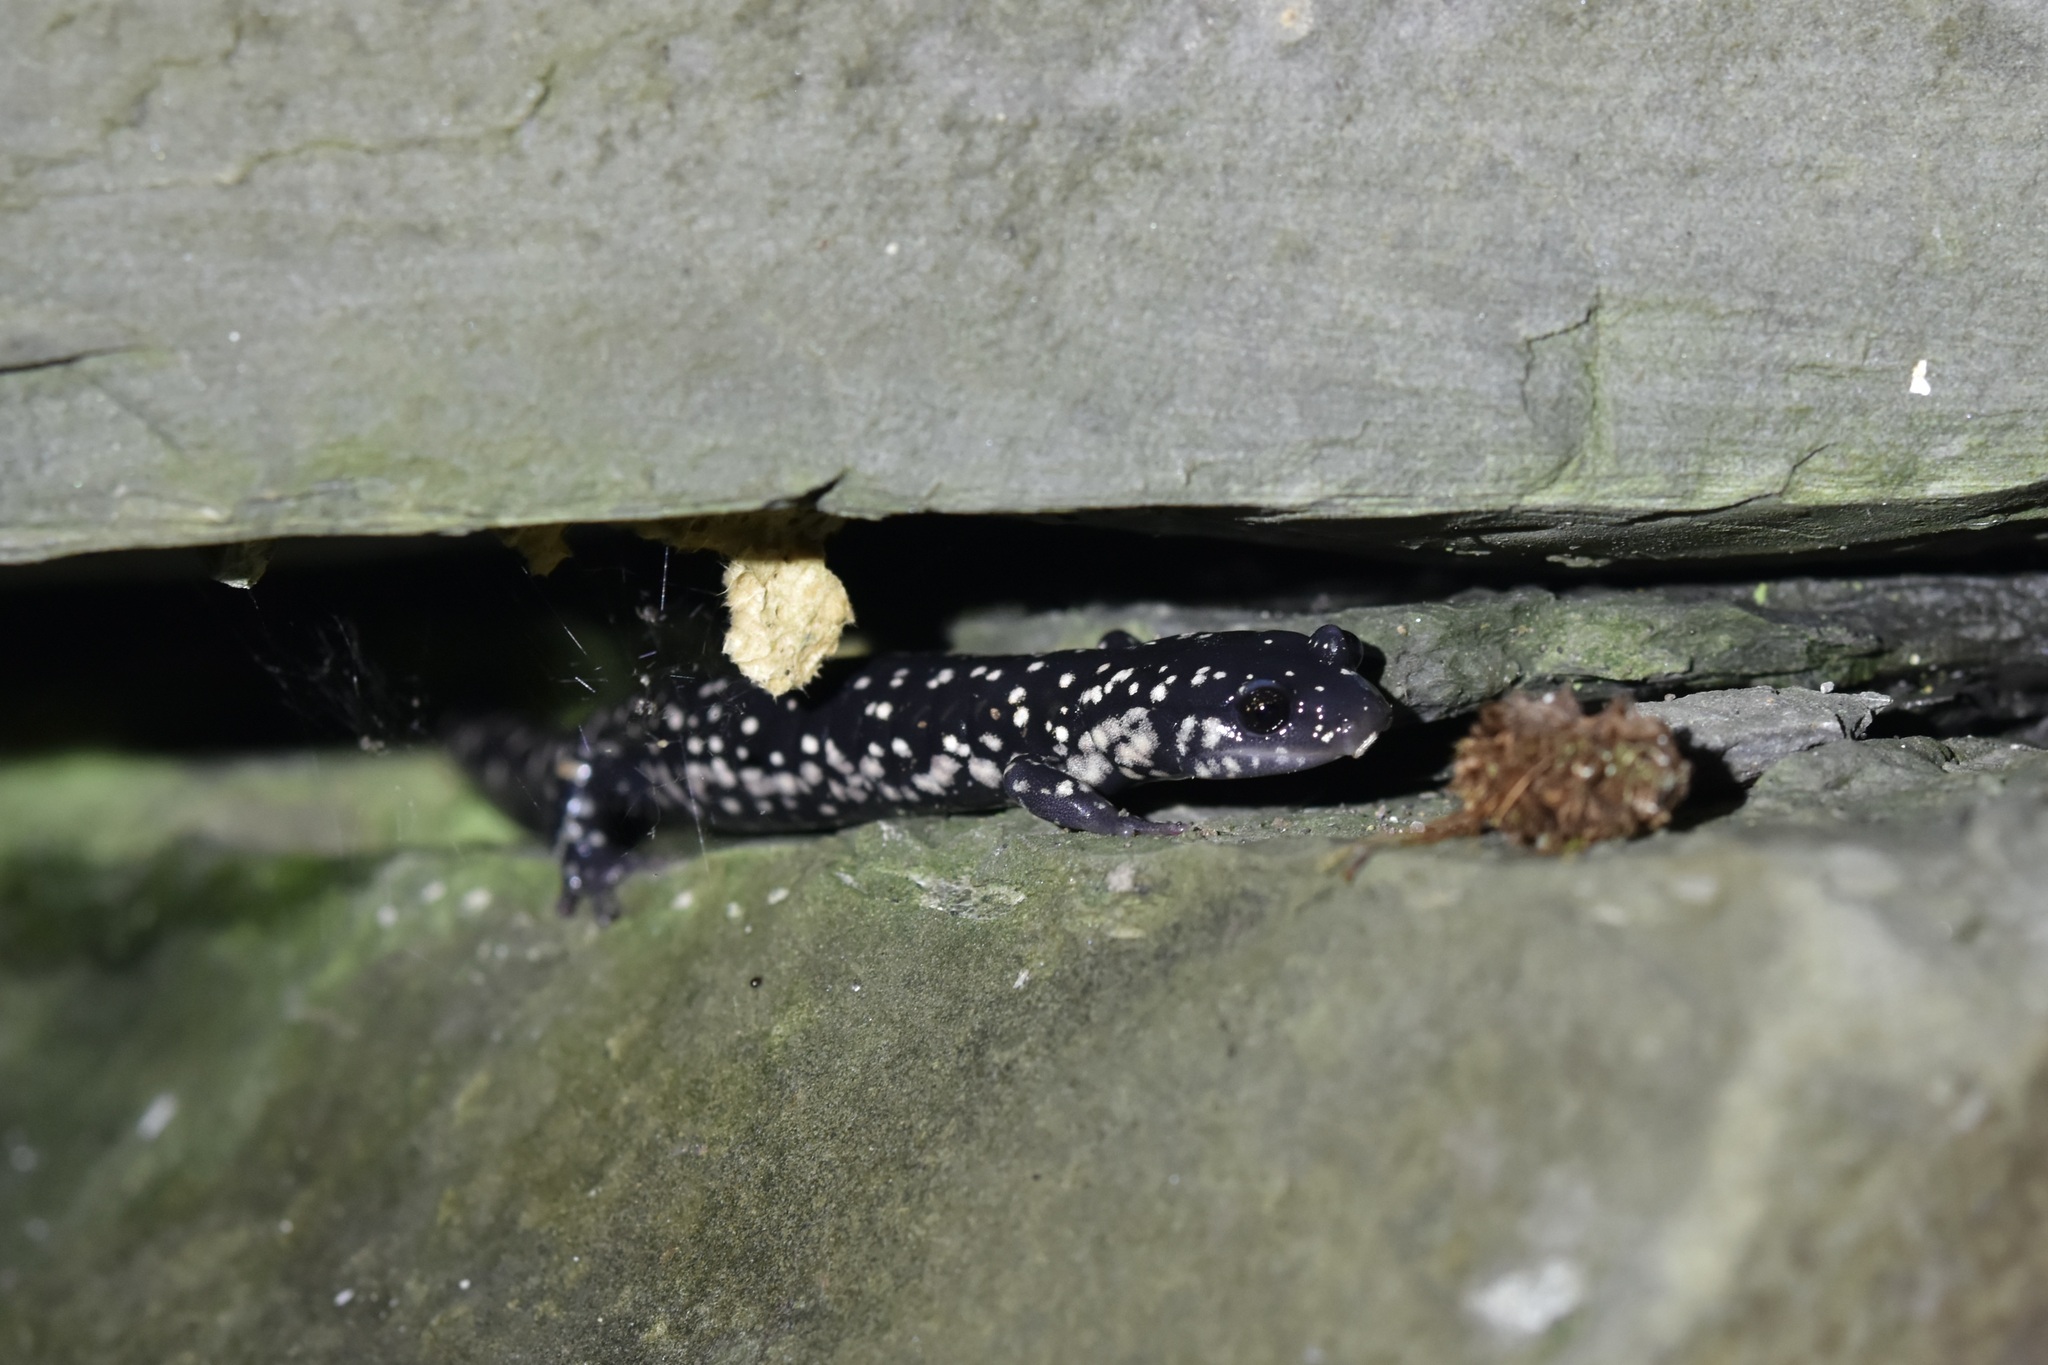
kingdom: Animalia
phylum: Chordata
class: Amphibia
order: Caudata
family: Plethodontidae
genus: Plethodon
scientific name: Plethodon glutinosus
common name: Northern slimy salamander
